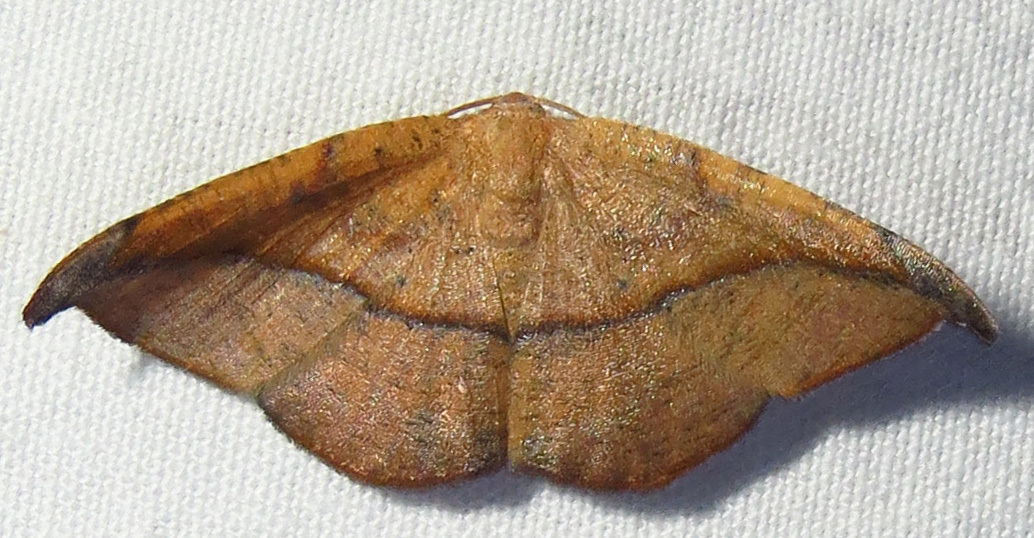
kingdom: Animalia
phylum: Arthropoda
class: Insecta
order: Lepidoptera
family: Geometridae
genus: Patalene
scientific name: Patalene olyzonaria
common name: Juniper geometer moth
